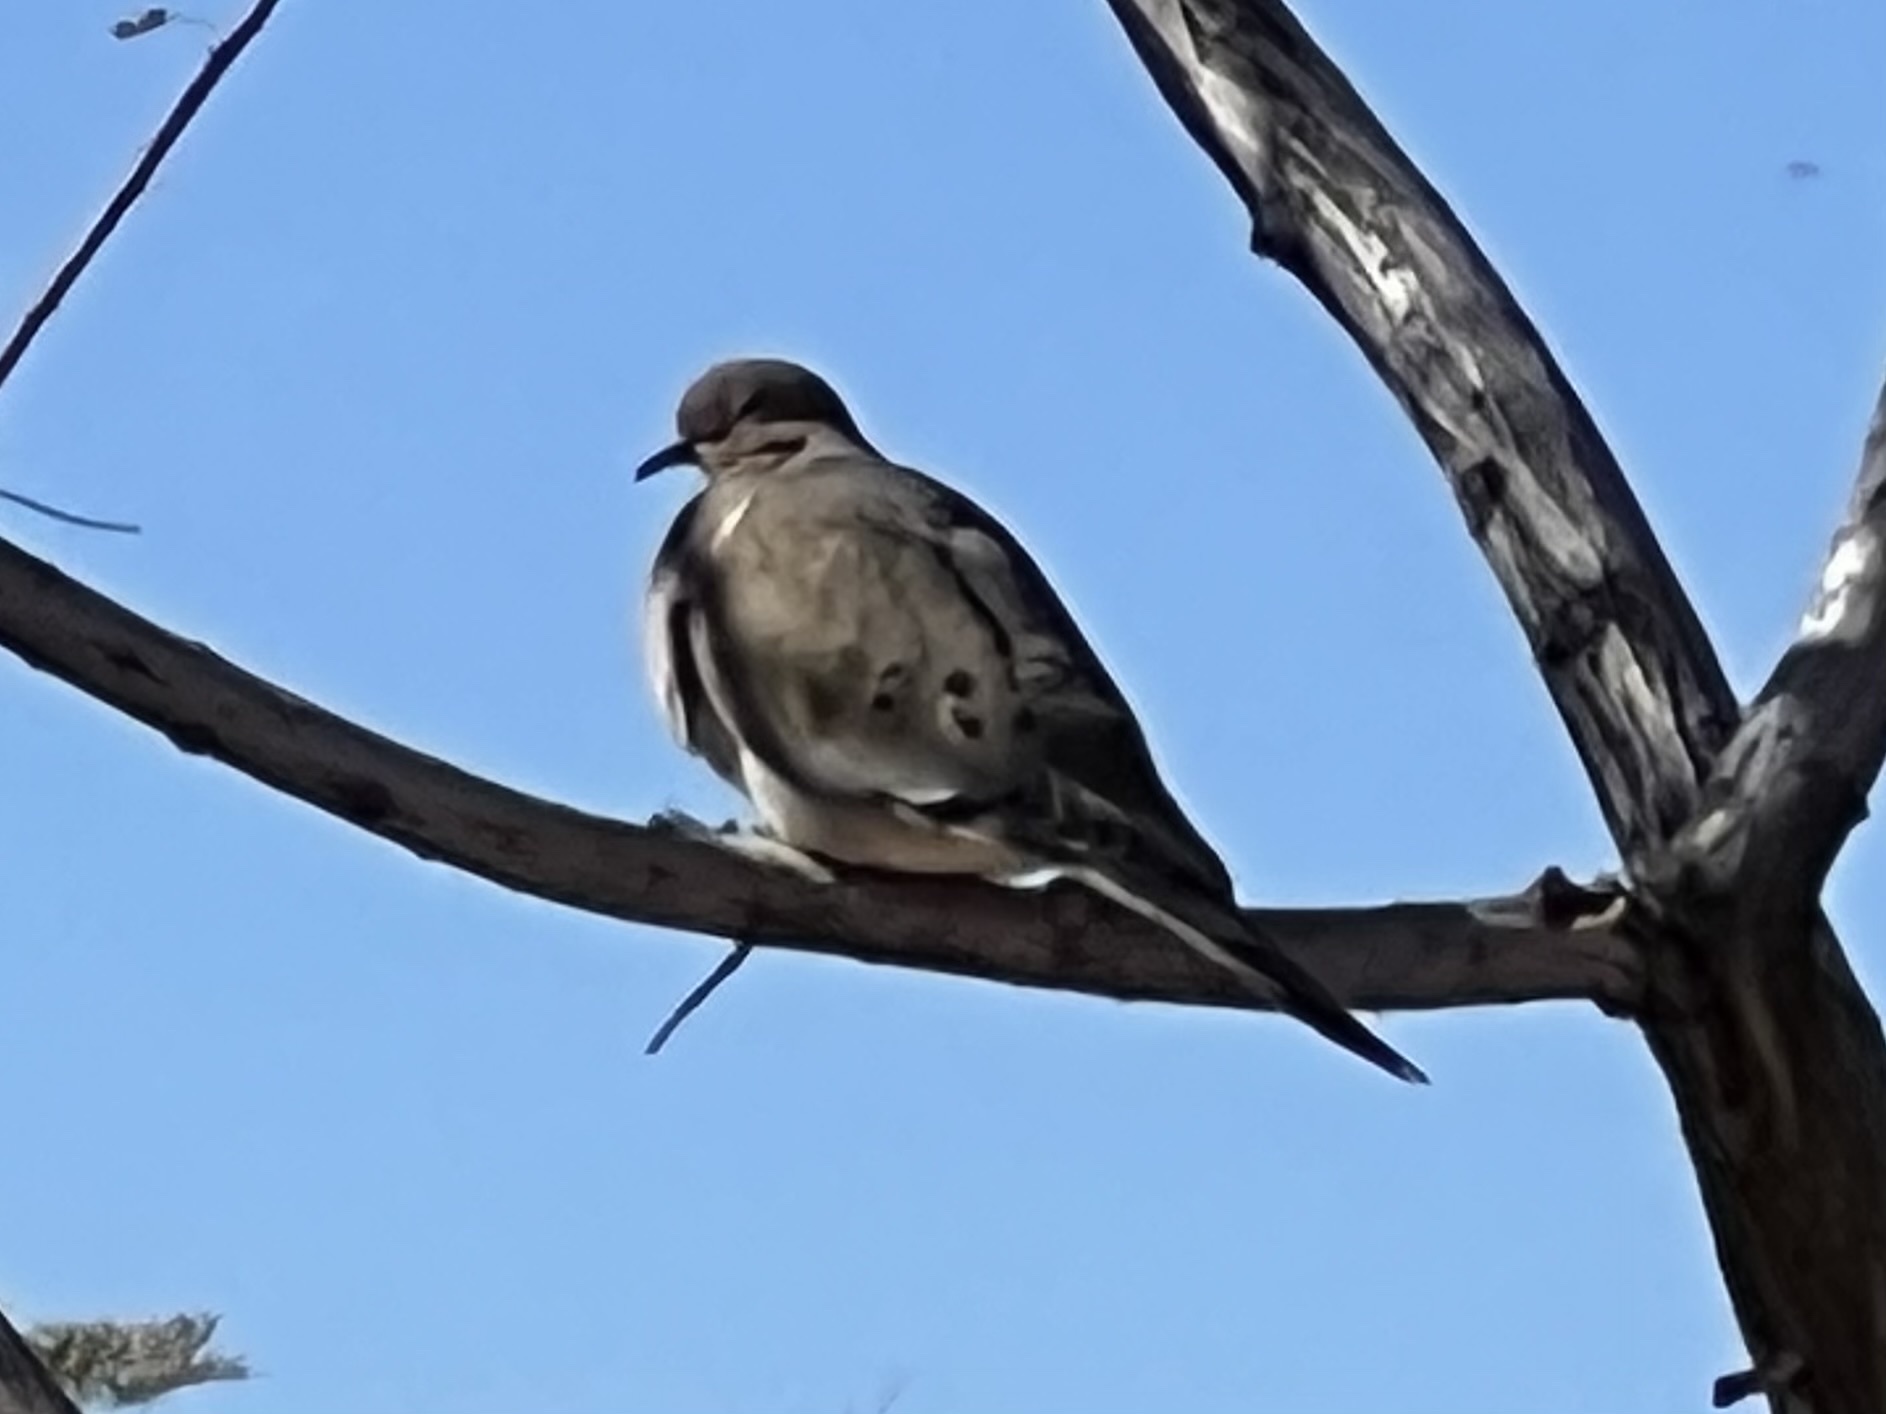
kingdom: Animalia
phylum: Chordata
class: Aves
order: Columbiformes
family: Columbidae
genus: Zenaida
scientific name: Zenaida macroura
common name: Mourning dove
